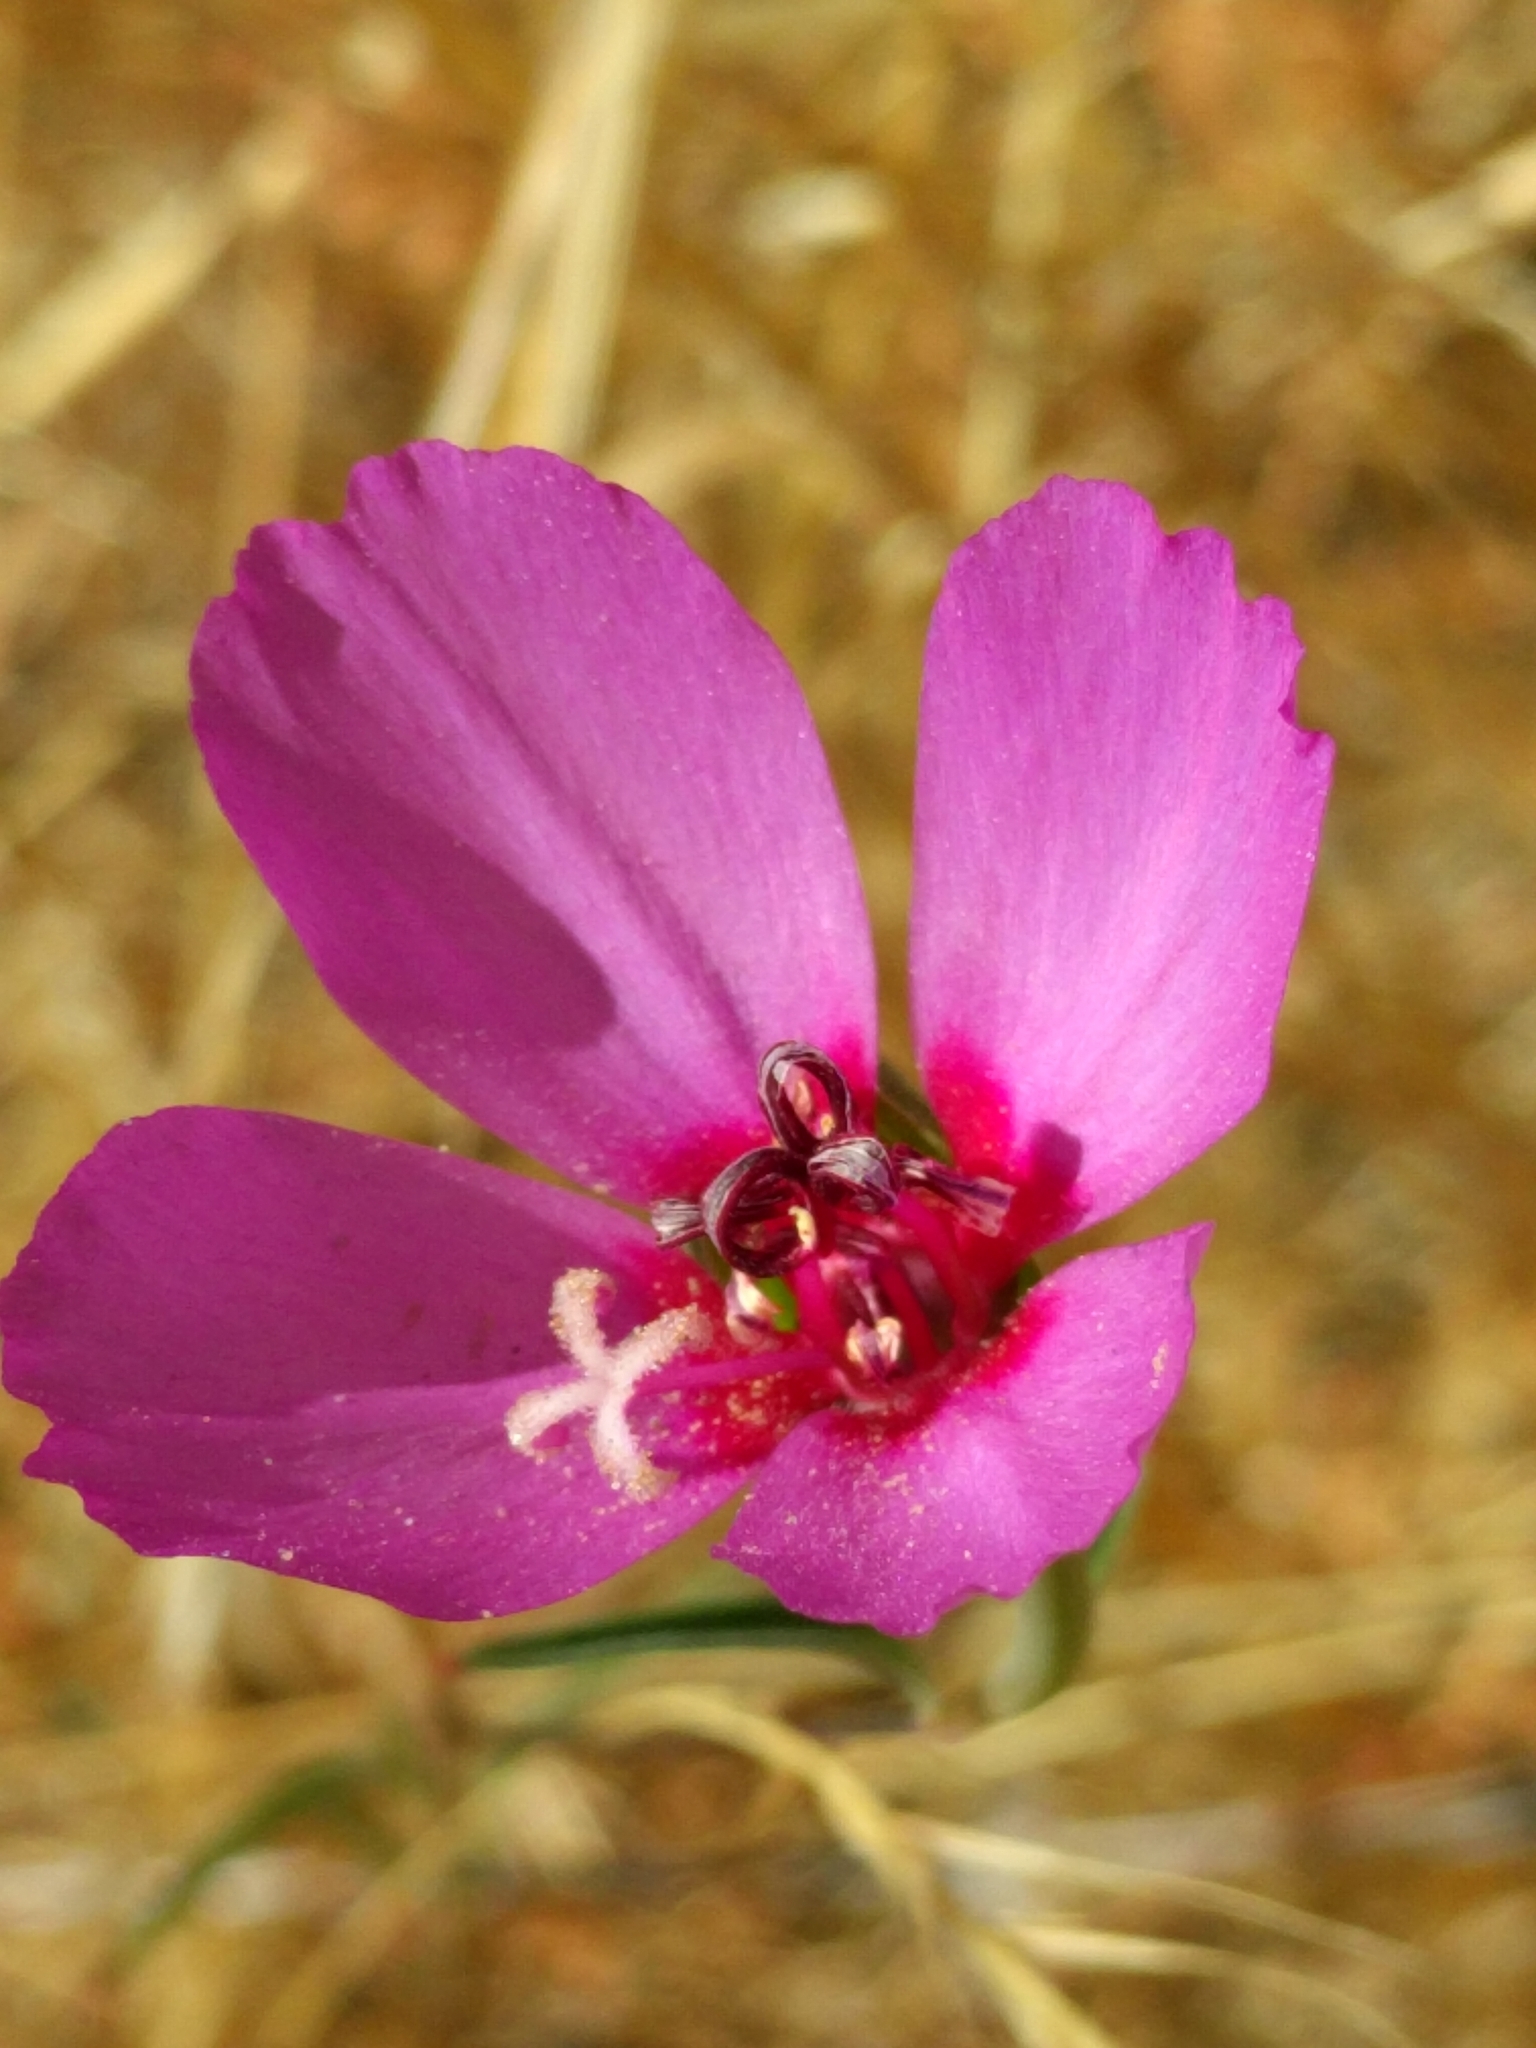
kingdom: Plantae
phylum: Tracheophyta
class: Magnoliopsida
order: Myrtales
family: Onagraceae
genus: Clarkia
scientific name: Clarkia rubicunda
